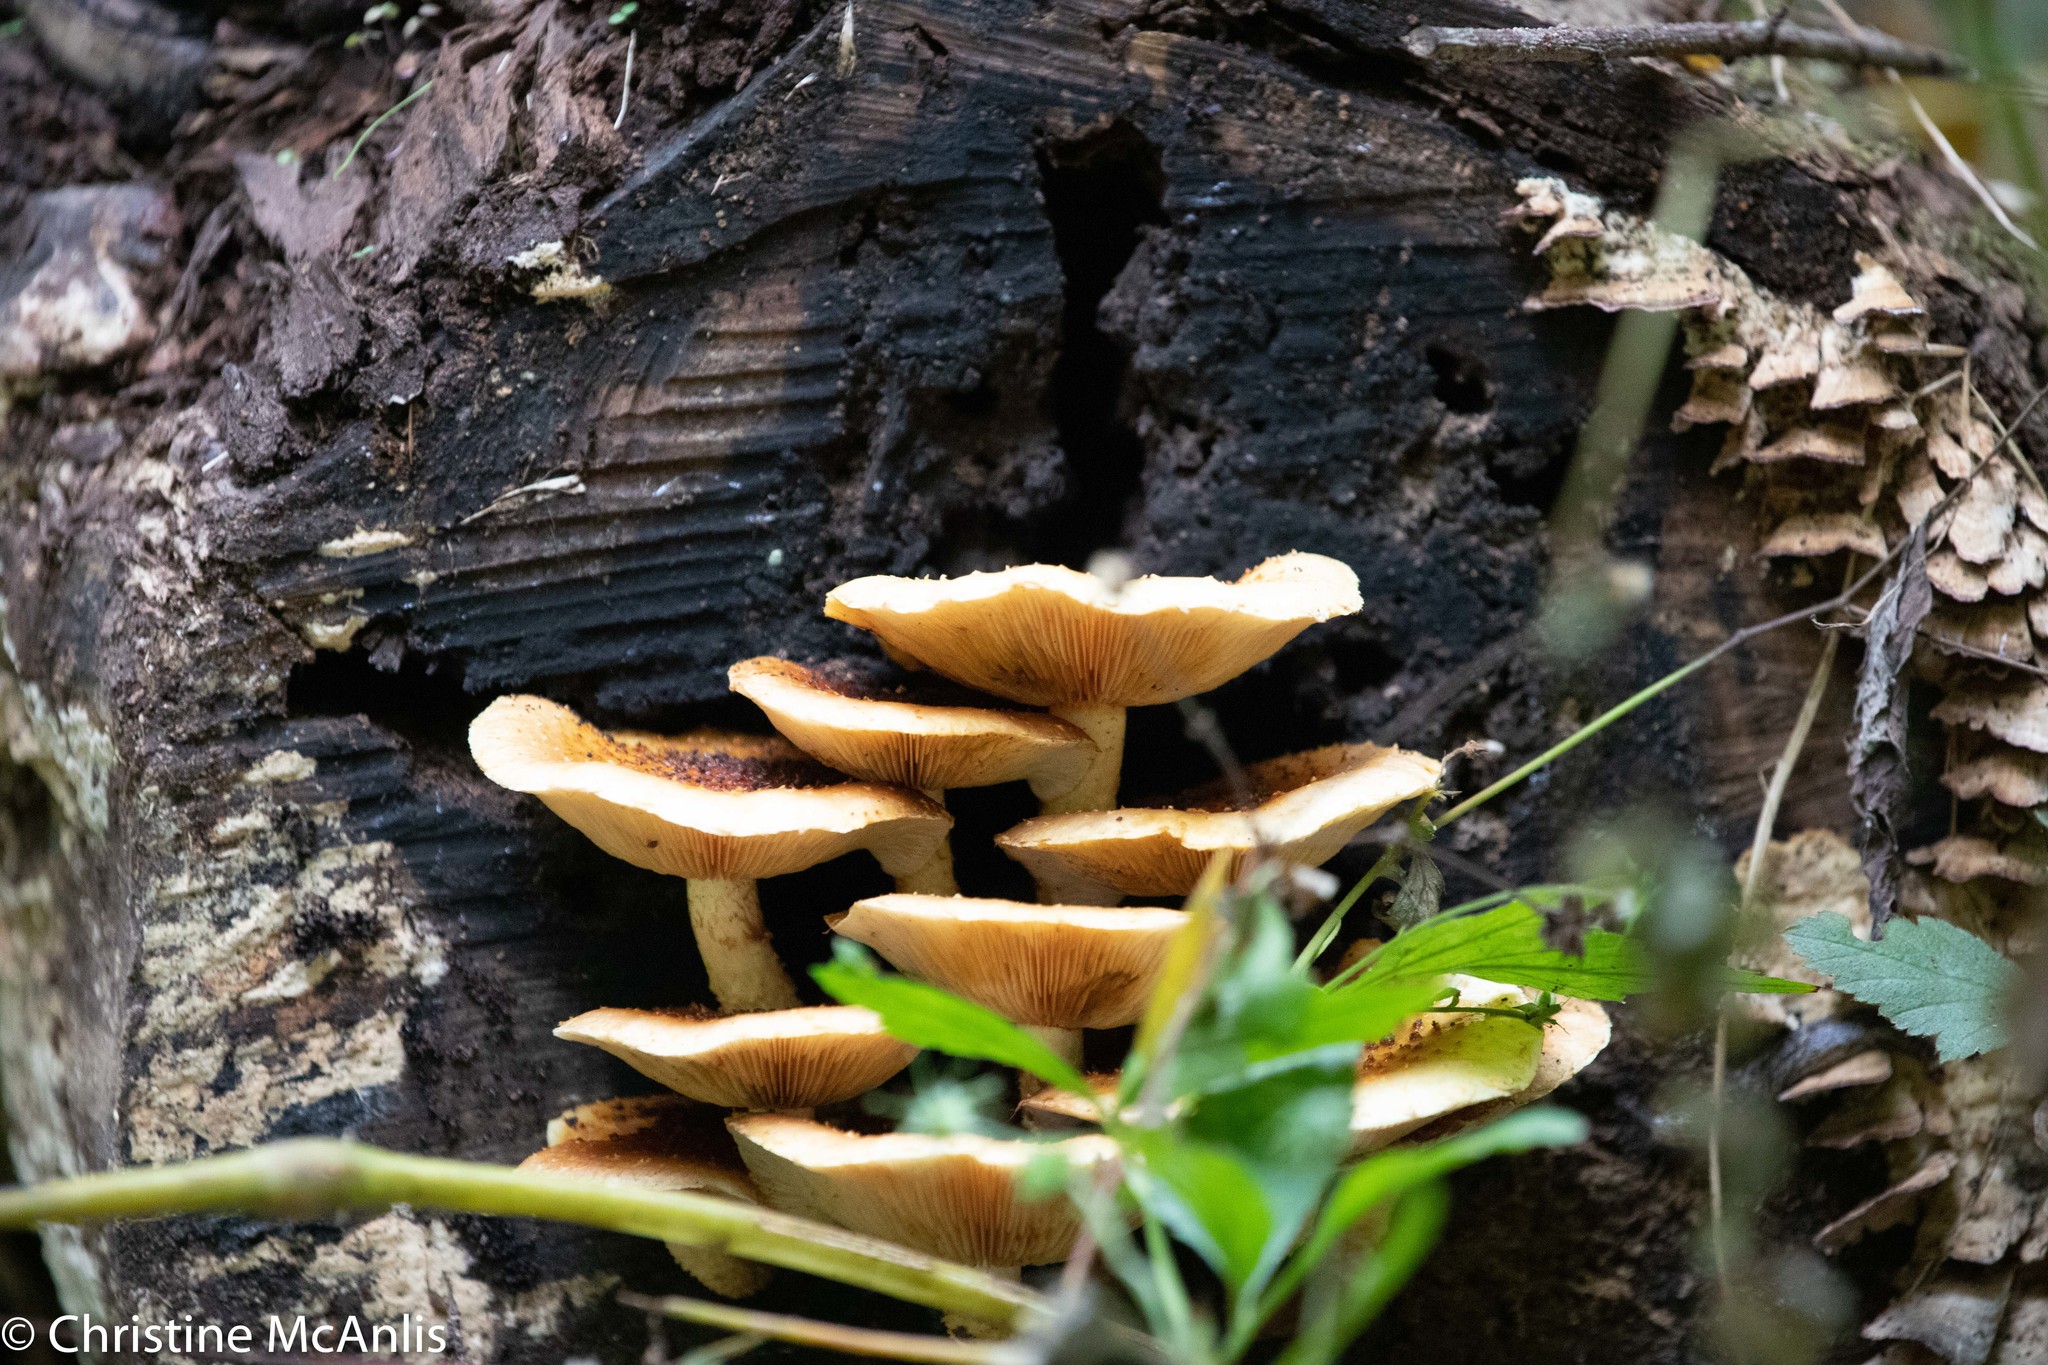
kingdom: Fungi
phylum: Basidiomycota
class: Agaricomycetes
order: Agaricales
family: Physalacriaceae
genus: Desarmillaria
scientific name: Desarmillaria caespitosa
